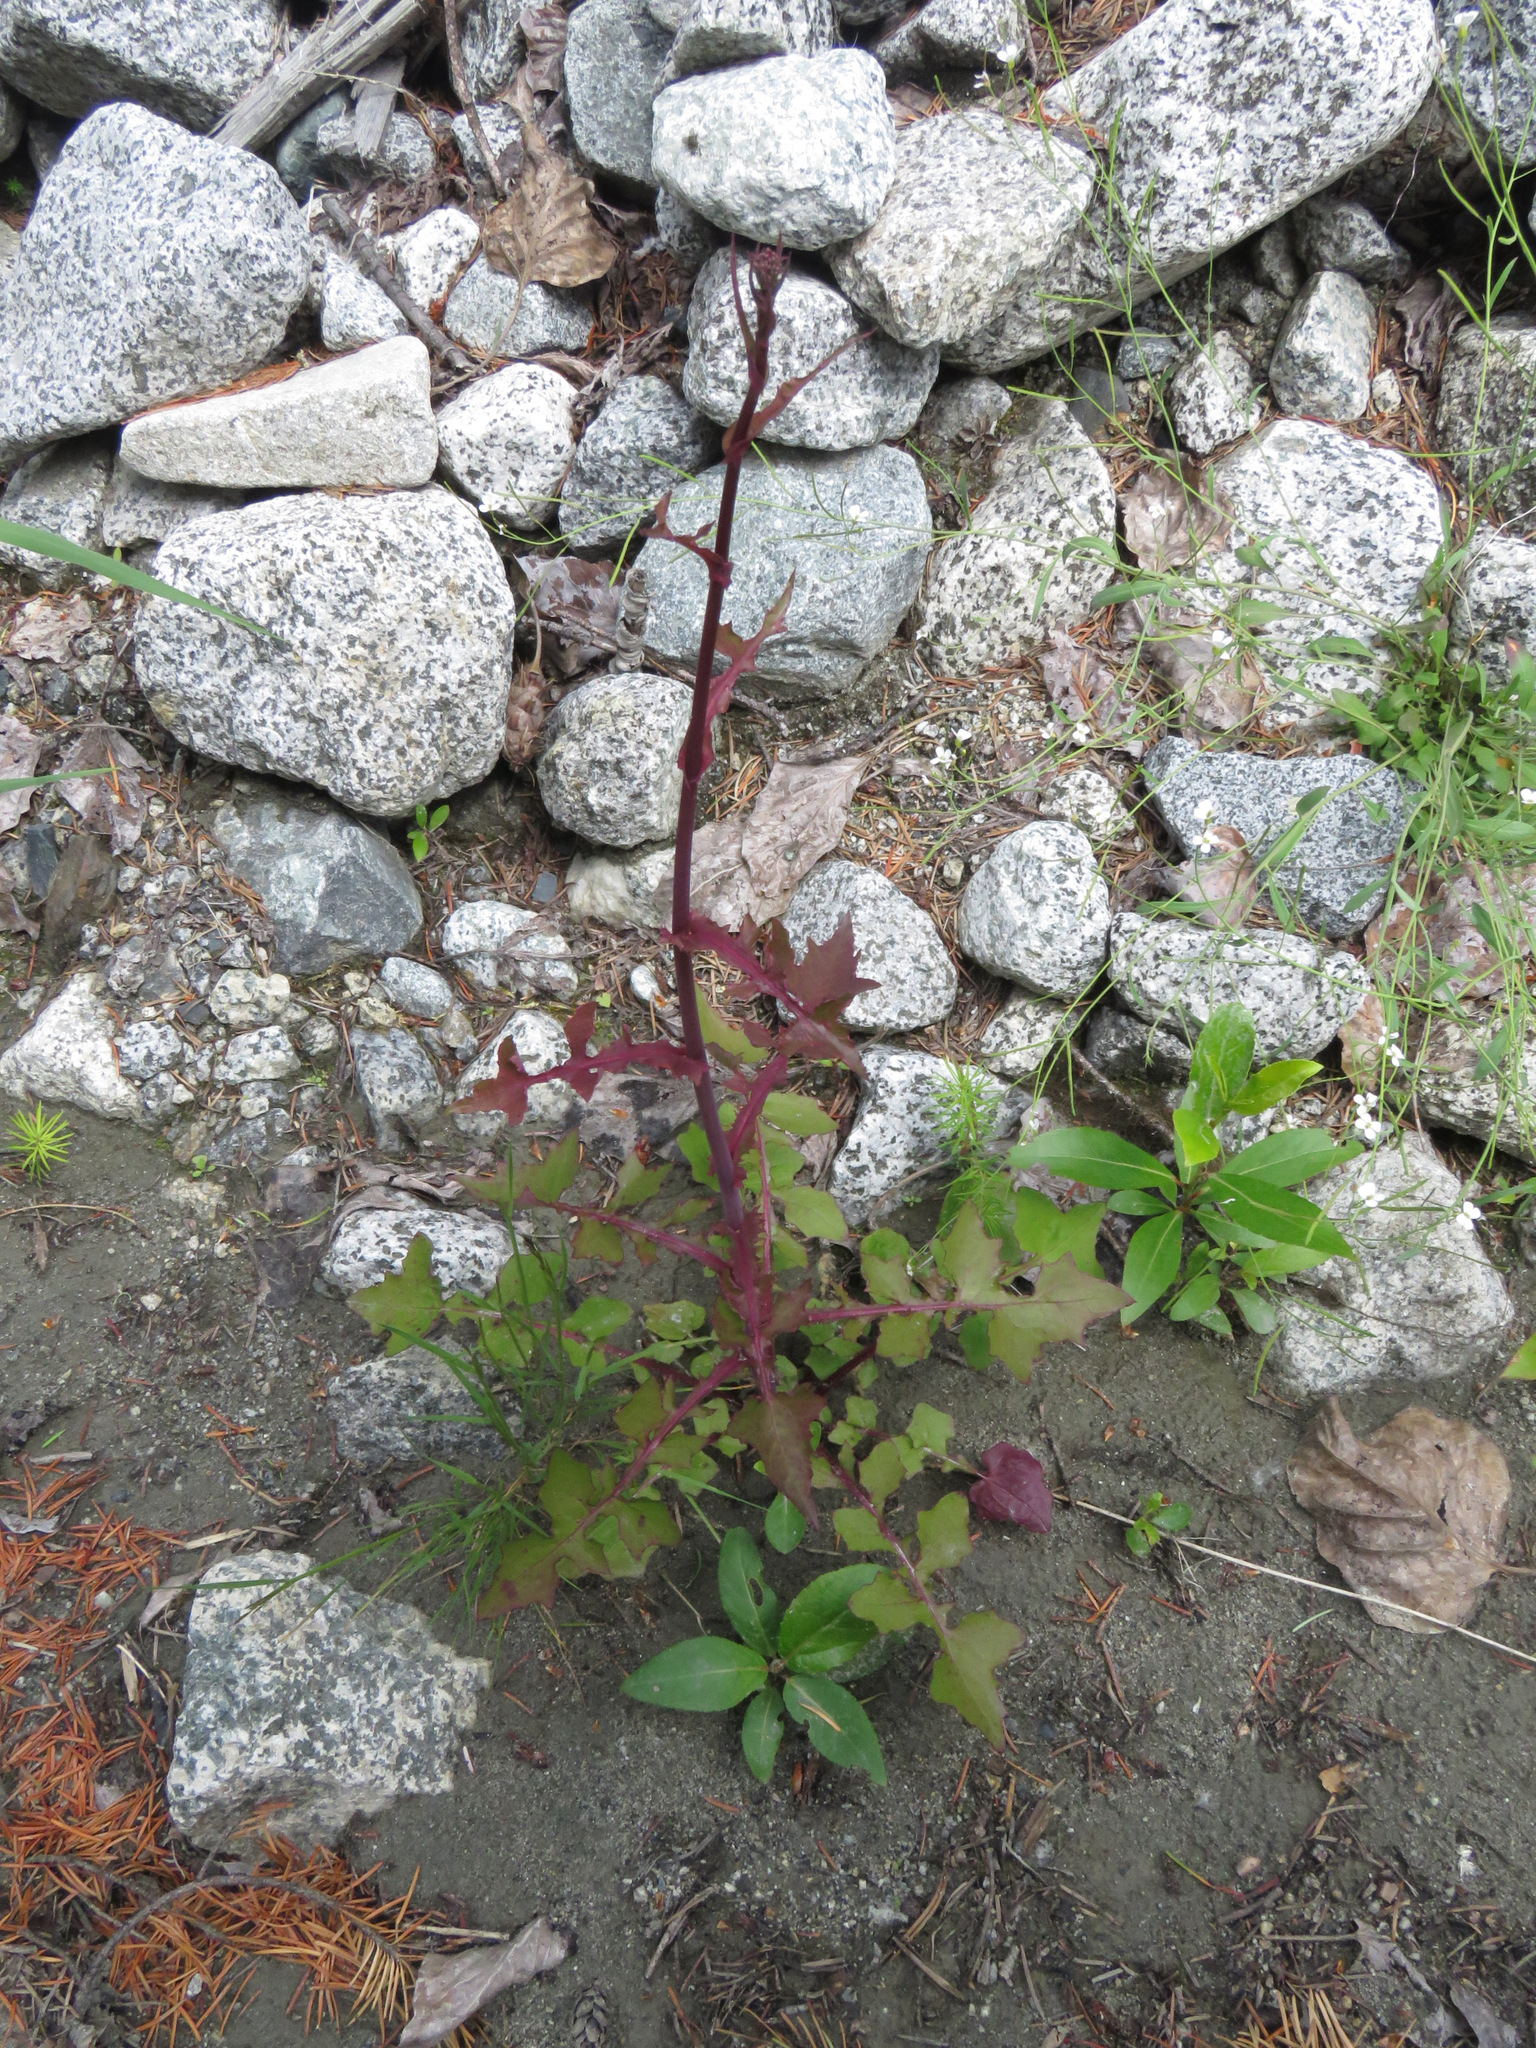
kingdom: Plantae
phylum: Tracheophyta
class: Magnoliopsida
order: Asterales
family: Asteraceae
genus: Mycelis
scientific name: Mycelis muralis
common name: Wall lettuce
